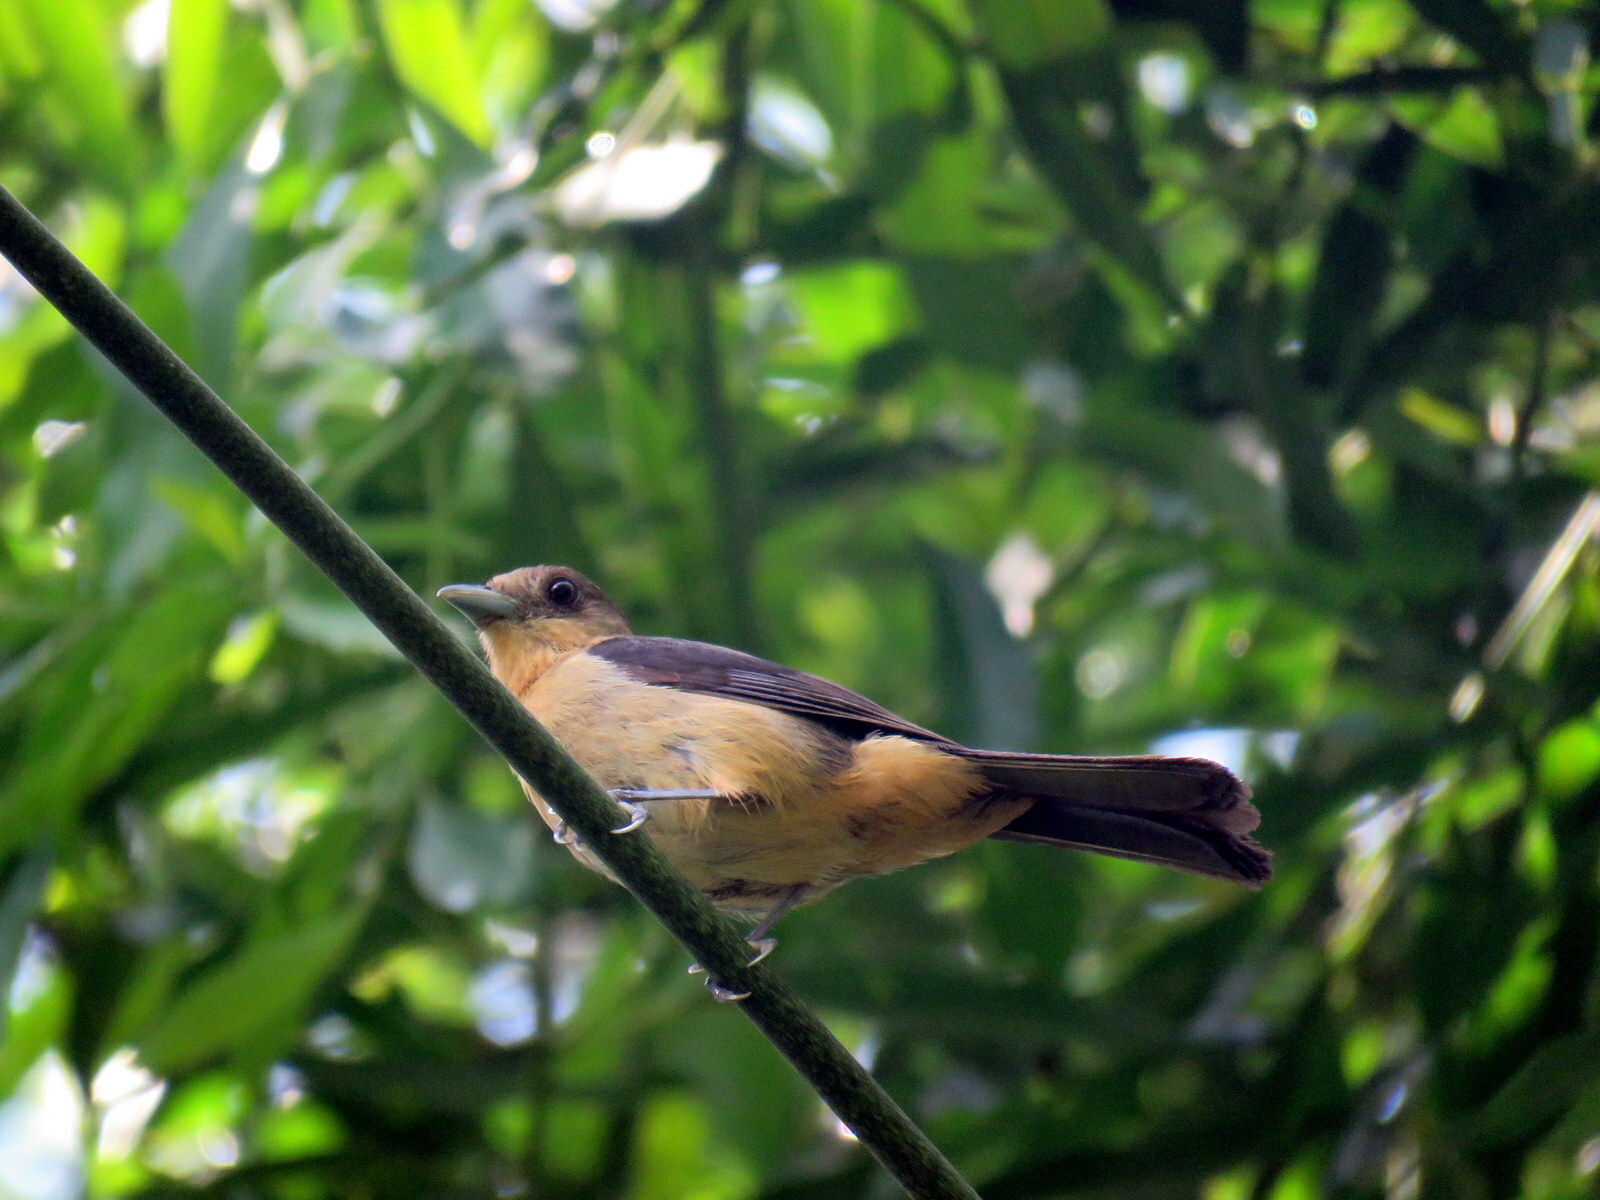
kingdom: Animalia
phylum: Chordata
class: Aves
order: Passeriformes
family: Thraupidae
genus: Trichothraupis
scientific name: Trichothraupis melanops
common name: Black-goggled tanager
